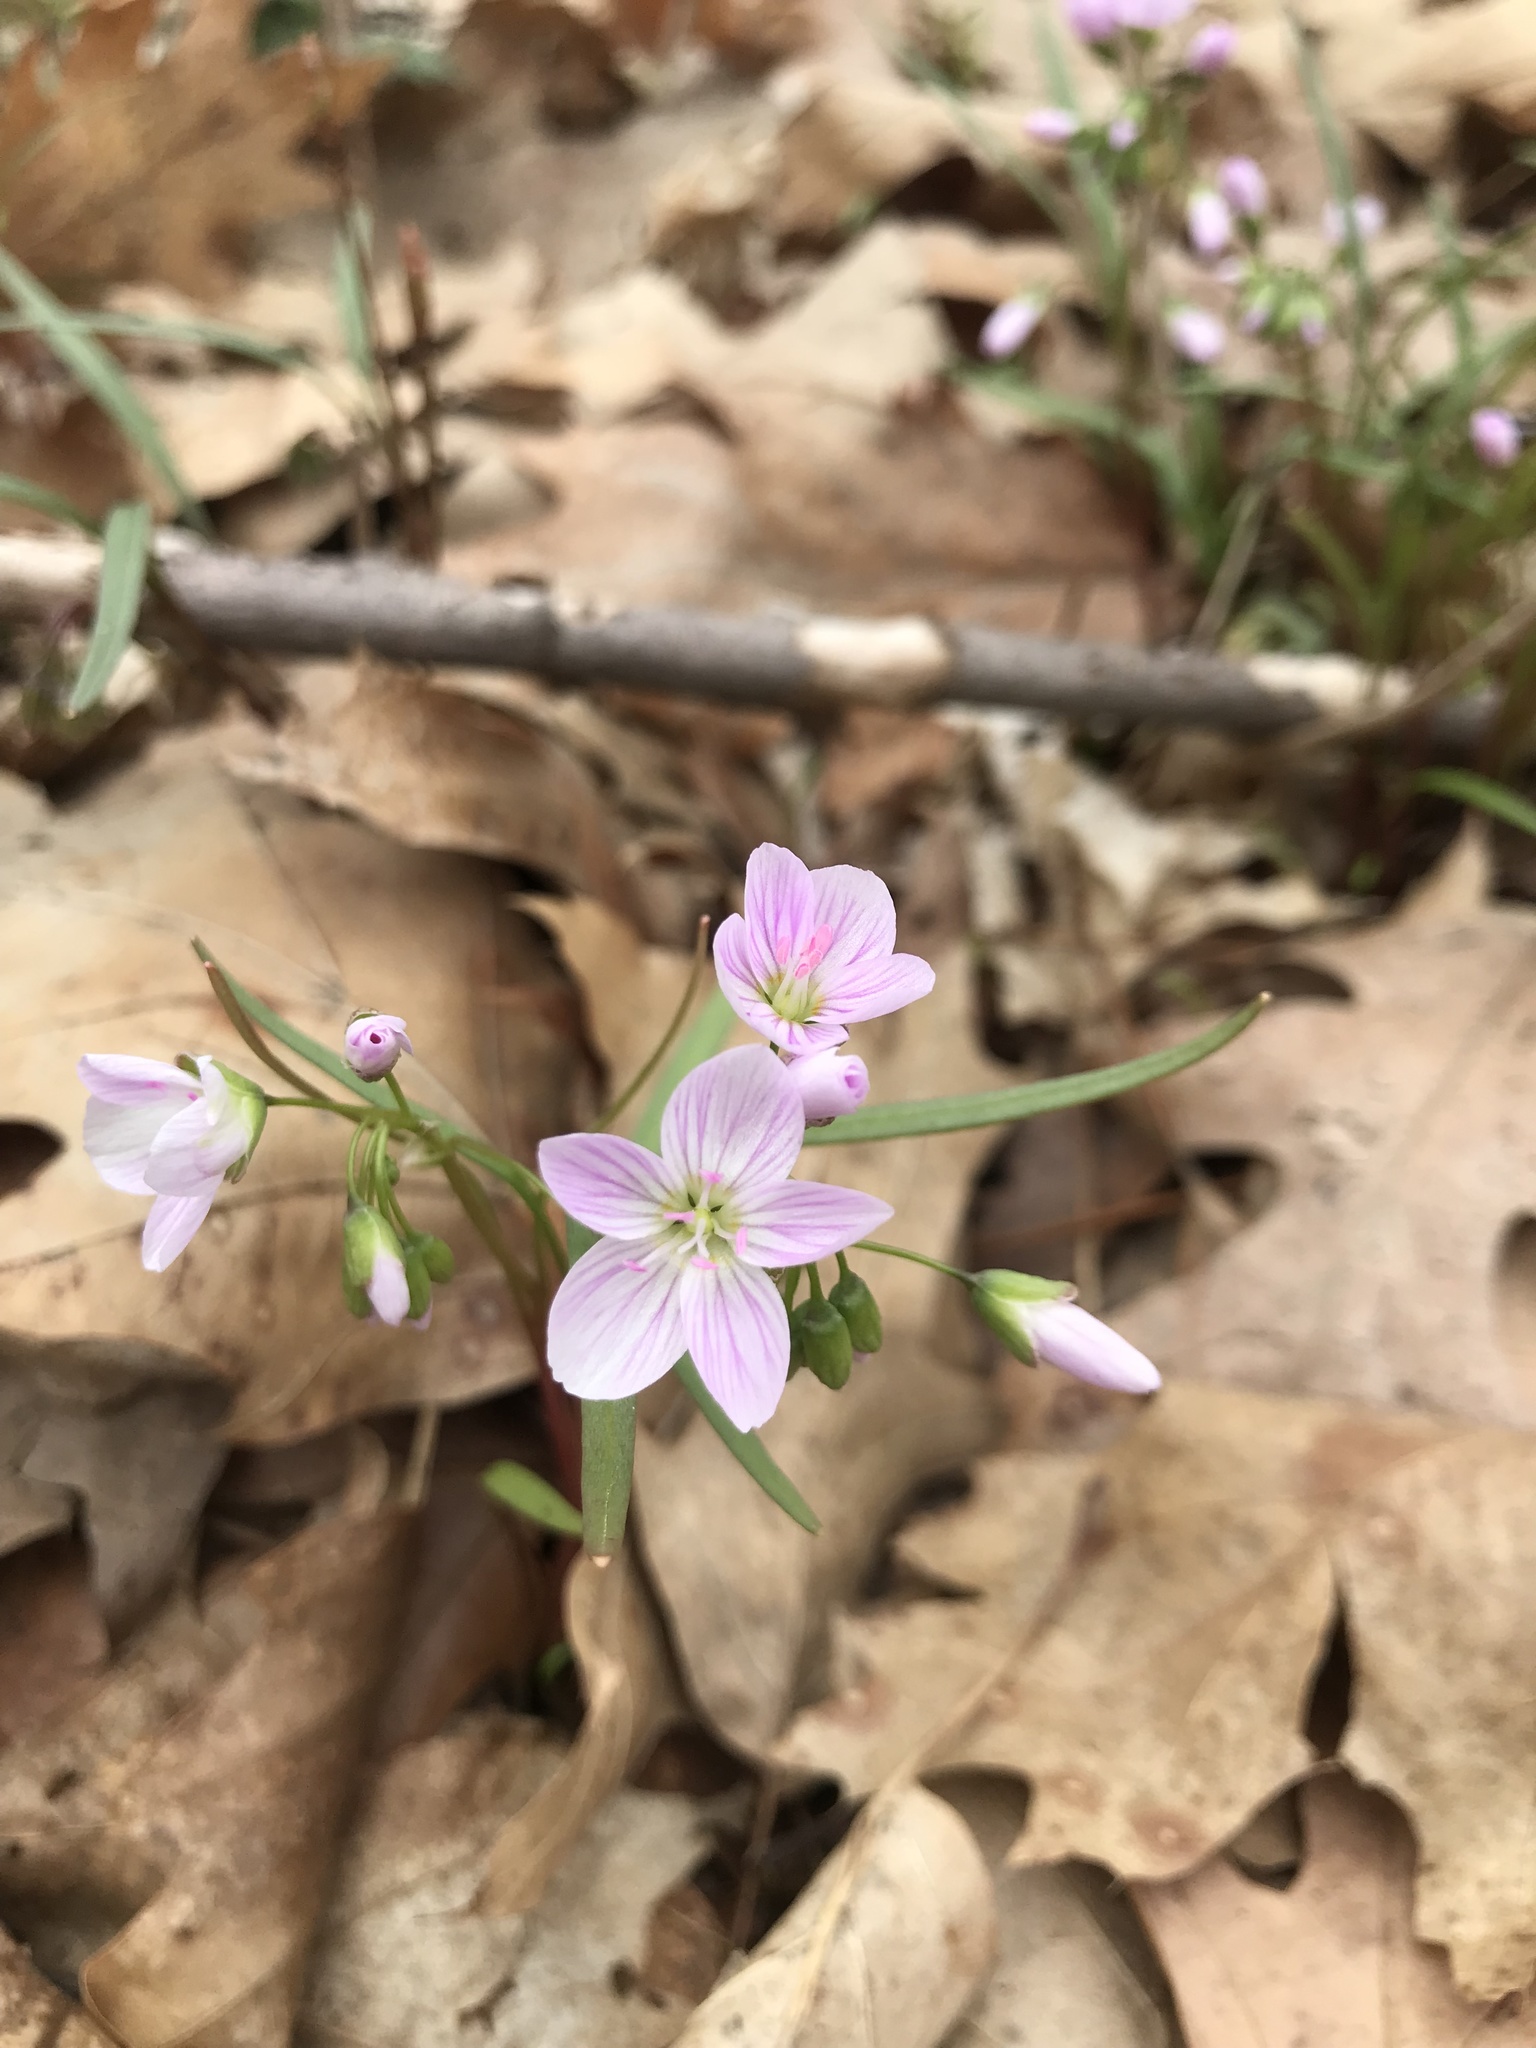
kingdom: Plantae
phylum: Tracheophyta
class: Magnoliopsida
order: Caryophyllales
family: Montiaceae
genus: Claytonia
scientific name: Claytonia virginica
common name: Virginia springbeauty
